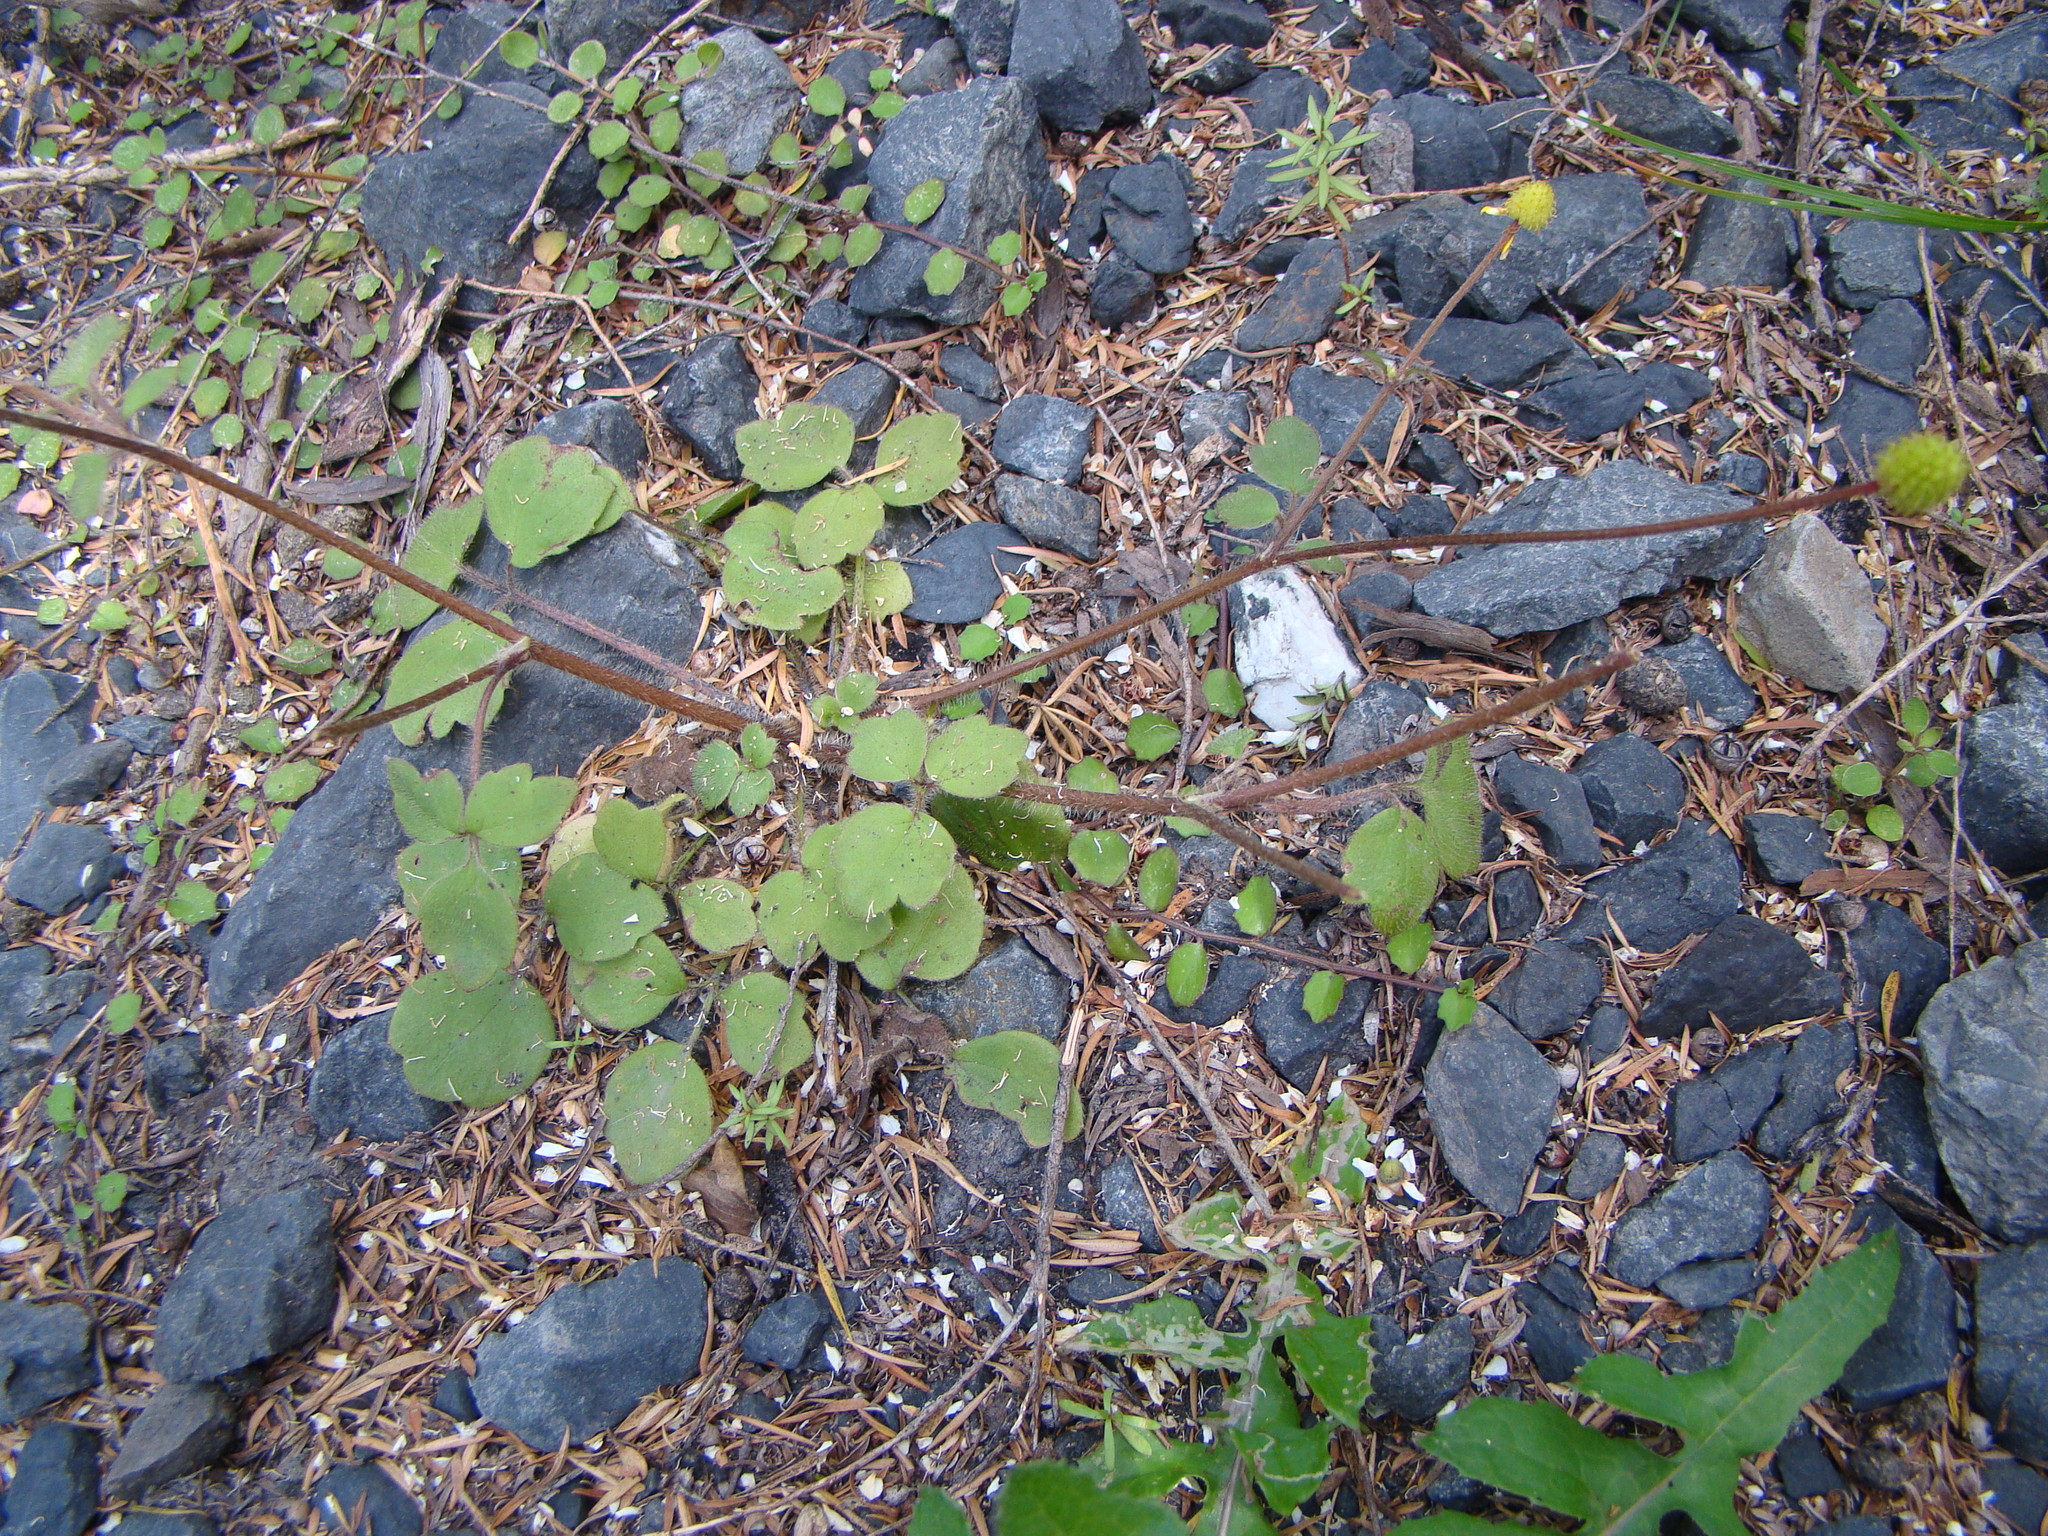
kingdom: Plantae
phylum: Tracheophyta
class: Magnoliopsida
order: Ranunculales
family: Ranunculaceae
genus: Ranunculus
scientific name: Ranunculus reflexus
